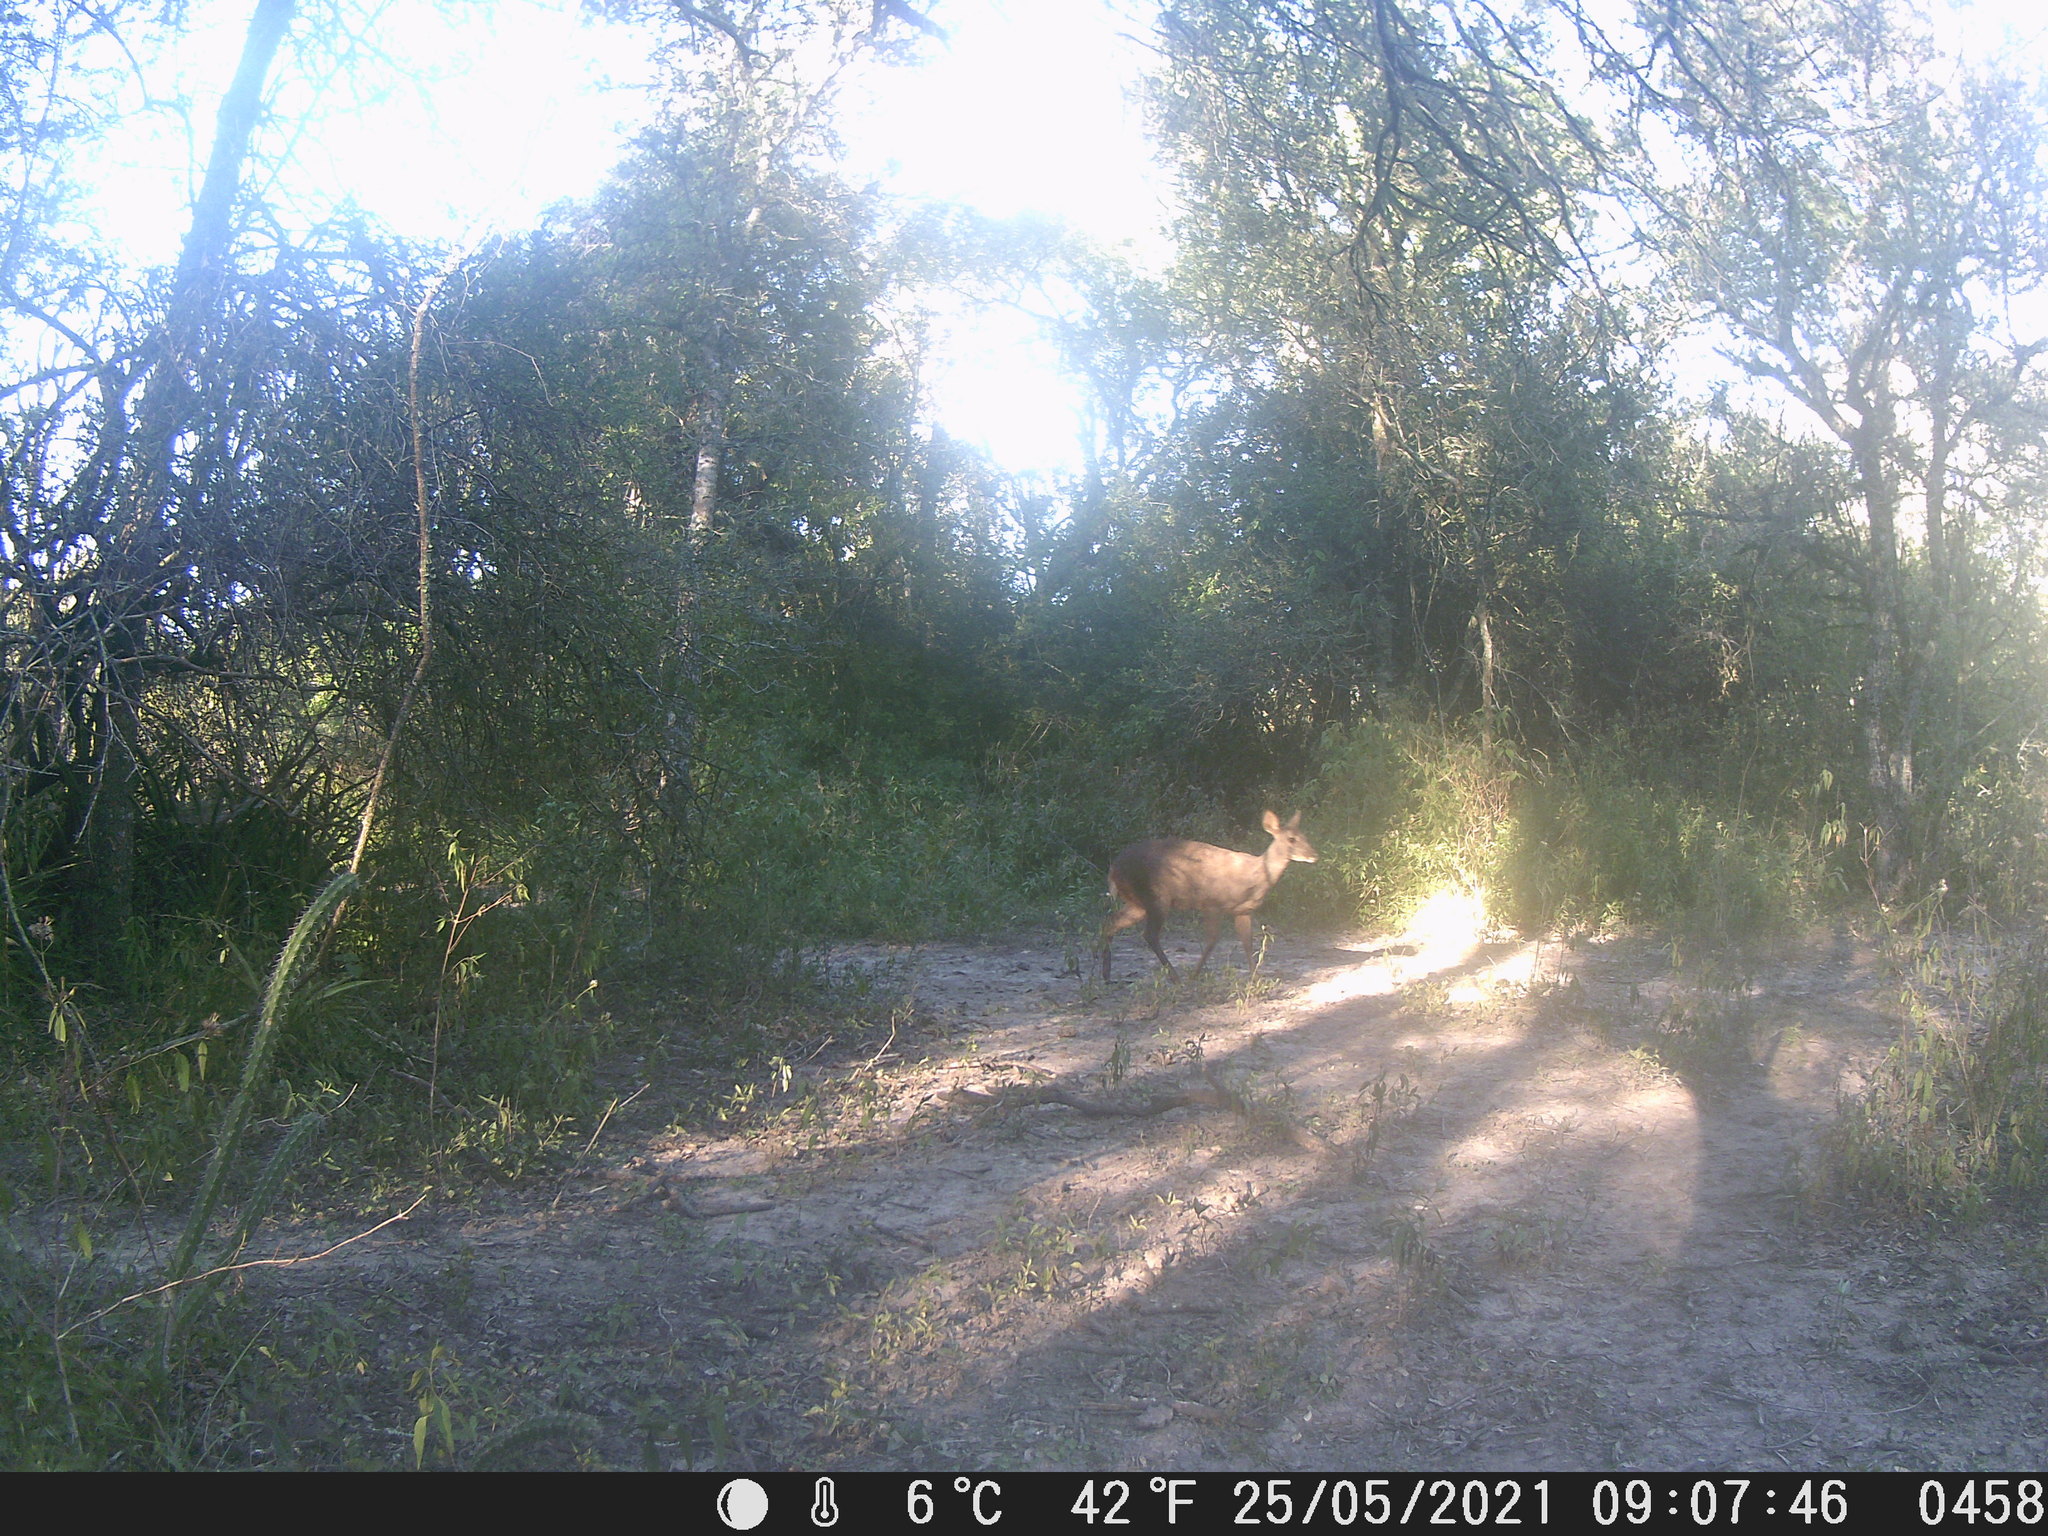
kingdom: Animalia
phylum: Chordata
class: Mammalia
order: Artiodactyla
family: Cervidae
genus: Mazama
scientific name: Mazama gouazoubira
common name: Gray brocket
